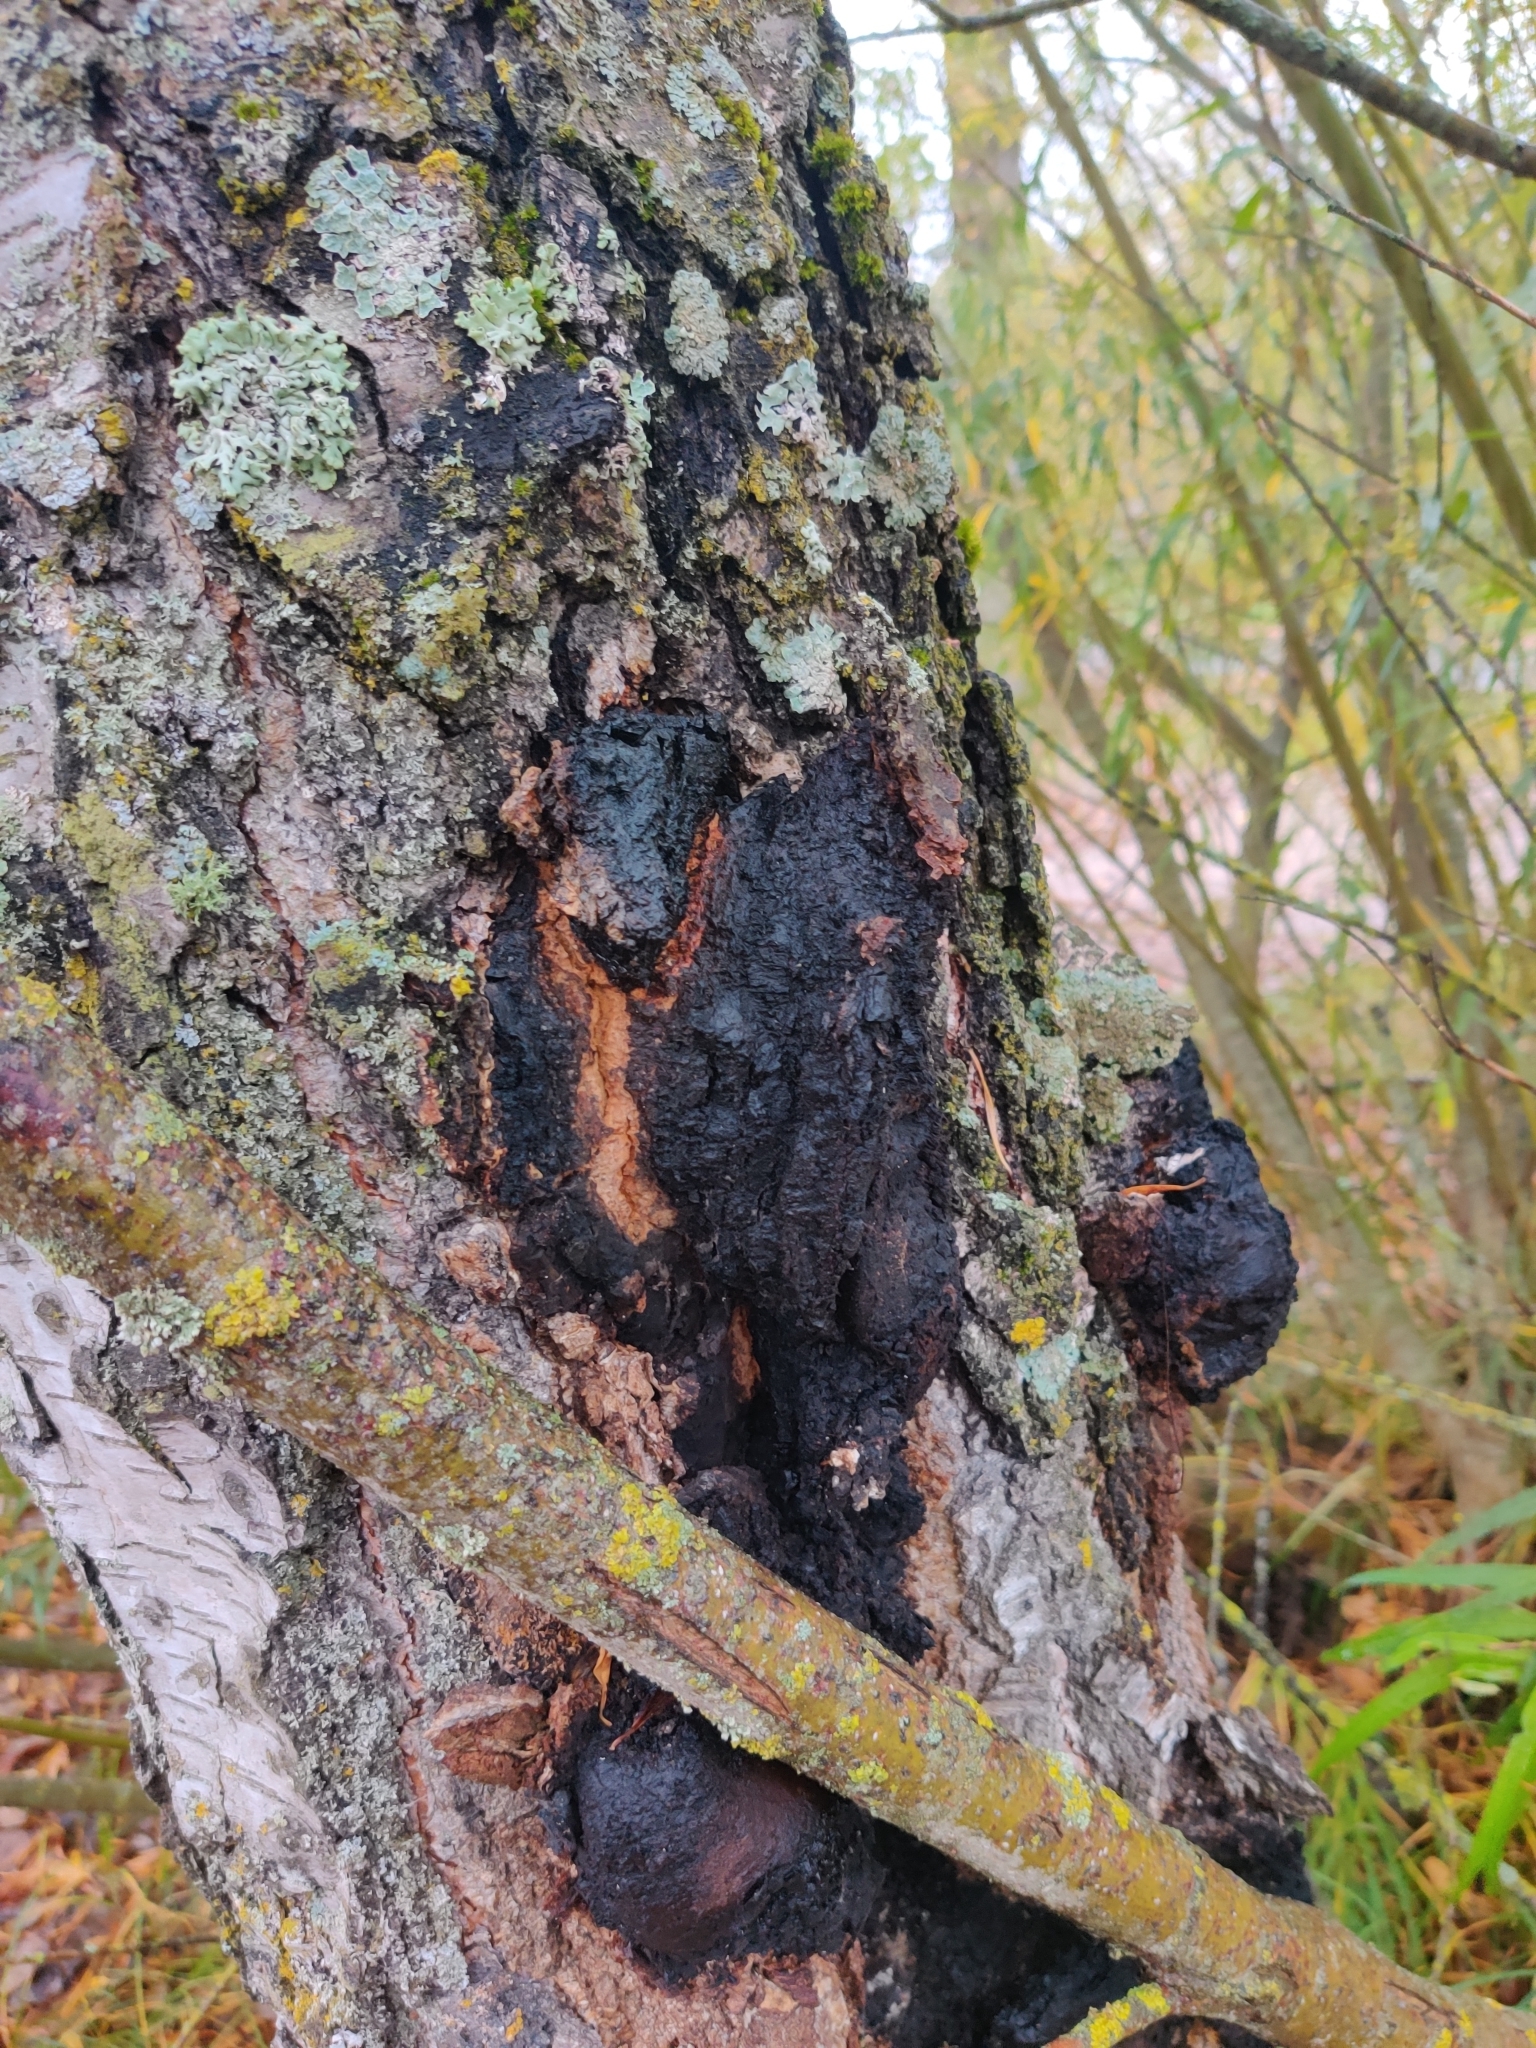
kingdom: Fungi
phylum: Basidiomycota
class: Agaricomycetes
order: Hymenochaetales
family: Hymenochaetaceae
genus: Inonotus
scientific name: Inonotus obliquus
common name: Chaga
